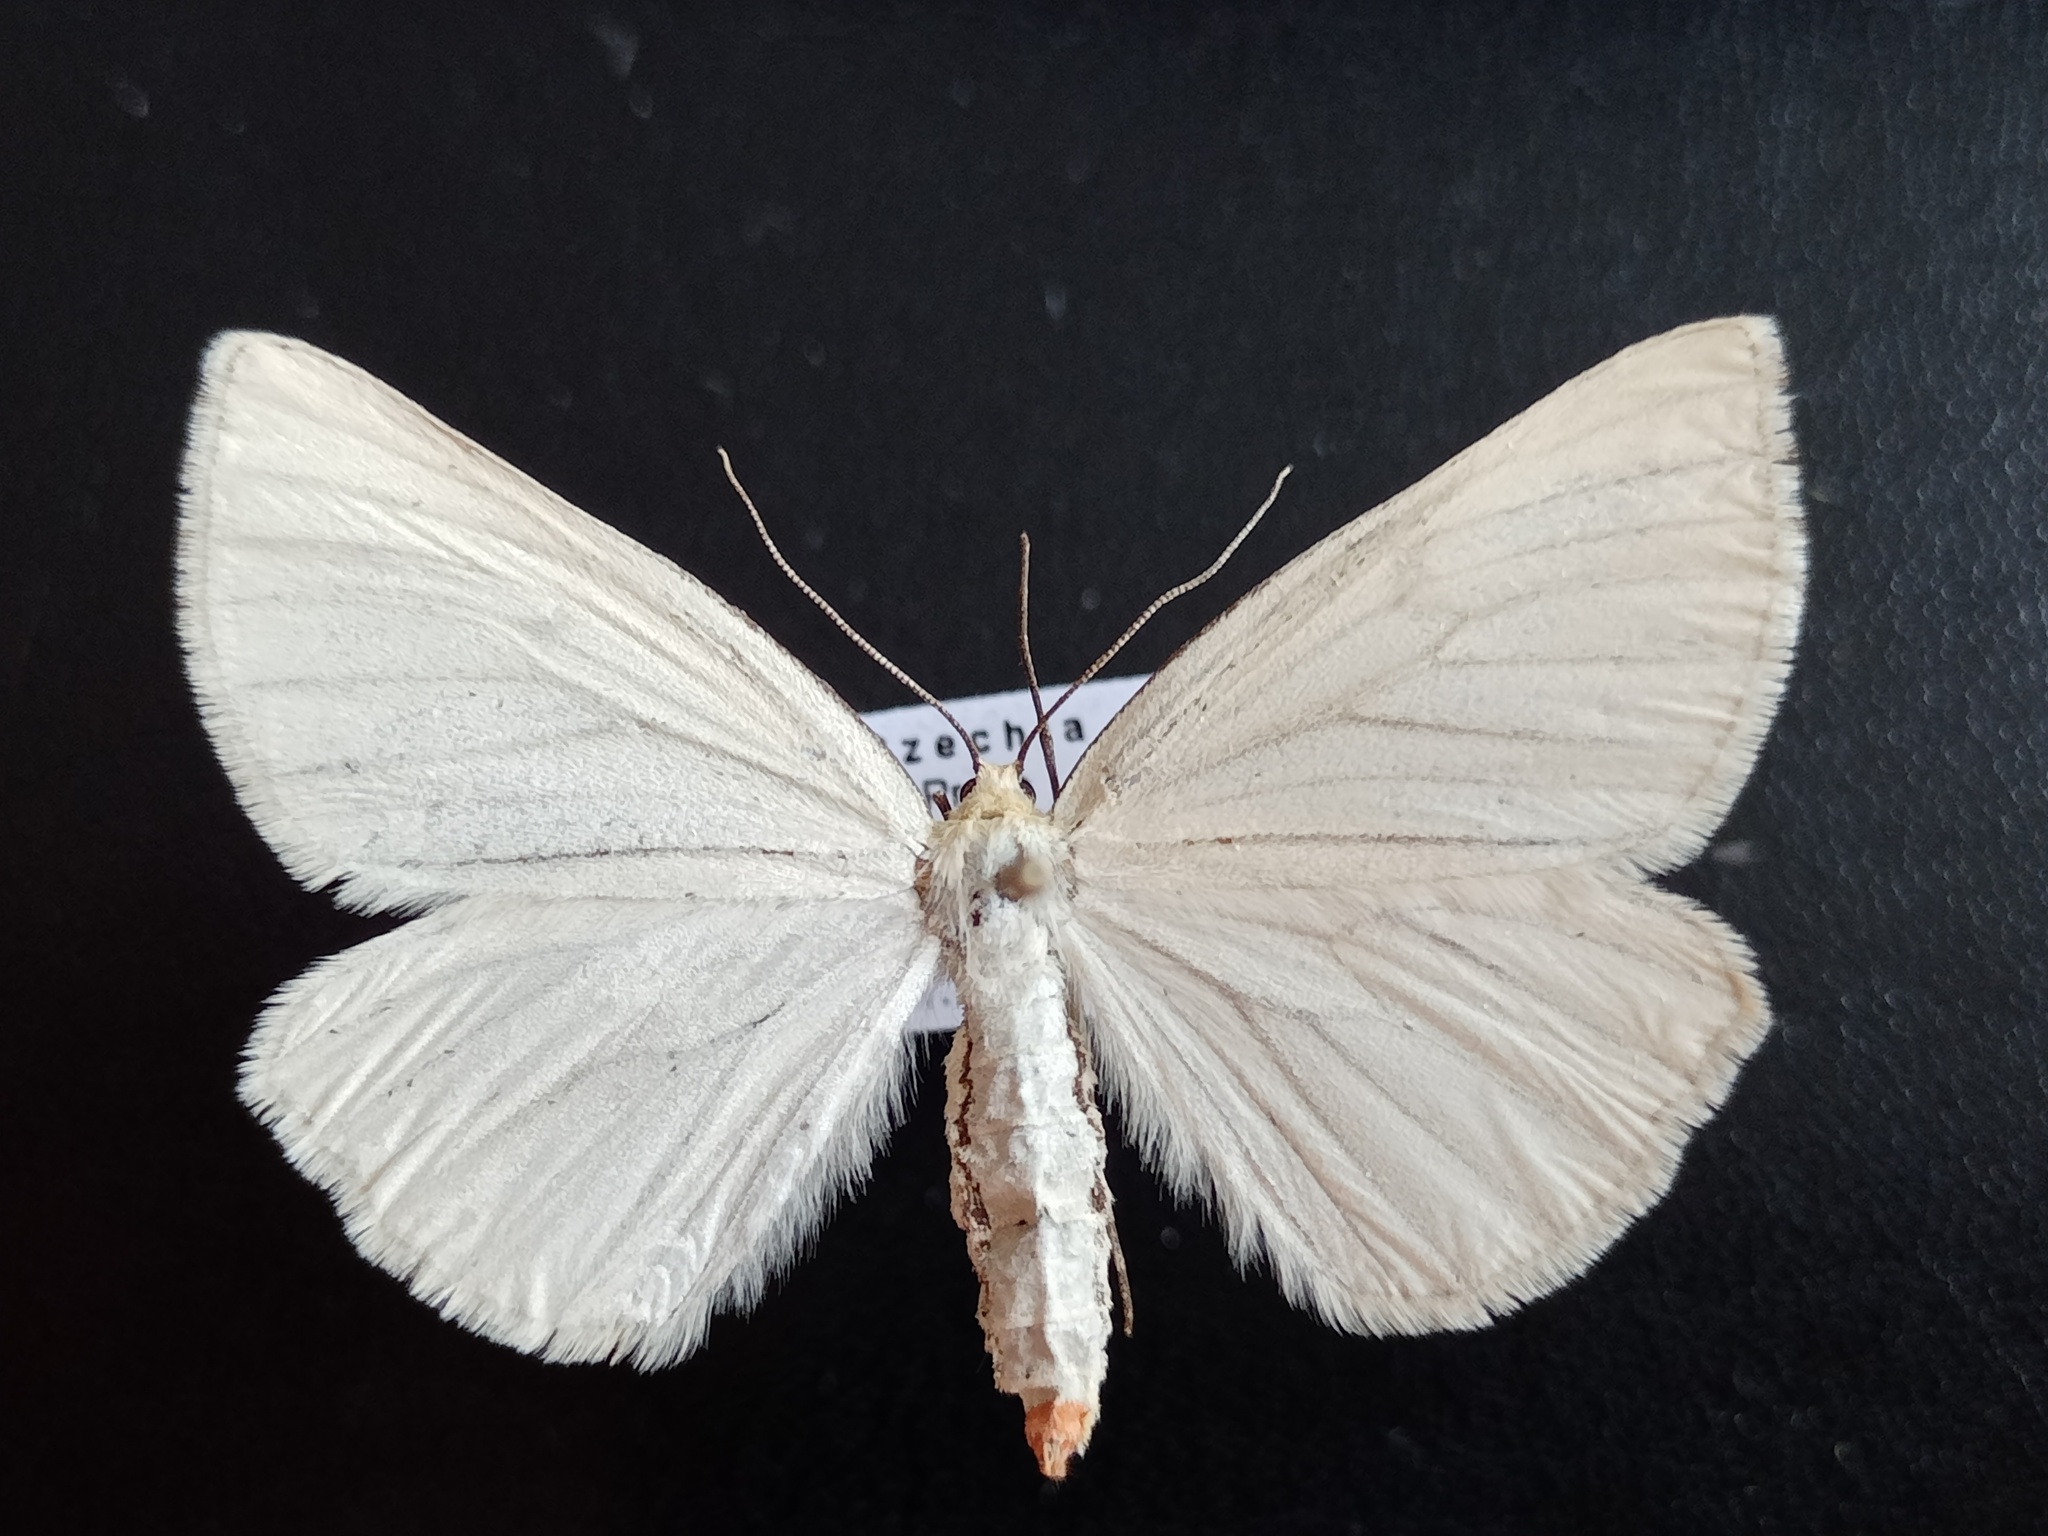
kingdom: Animalia
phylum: Arthropoda
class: Insecta
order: Lepidoptera
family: Geometridae
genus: Siona
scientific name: Siona lineata
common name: Black-veined moth
